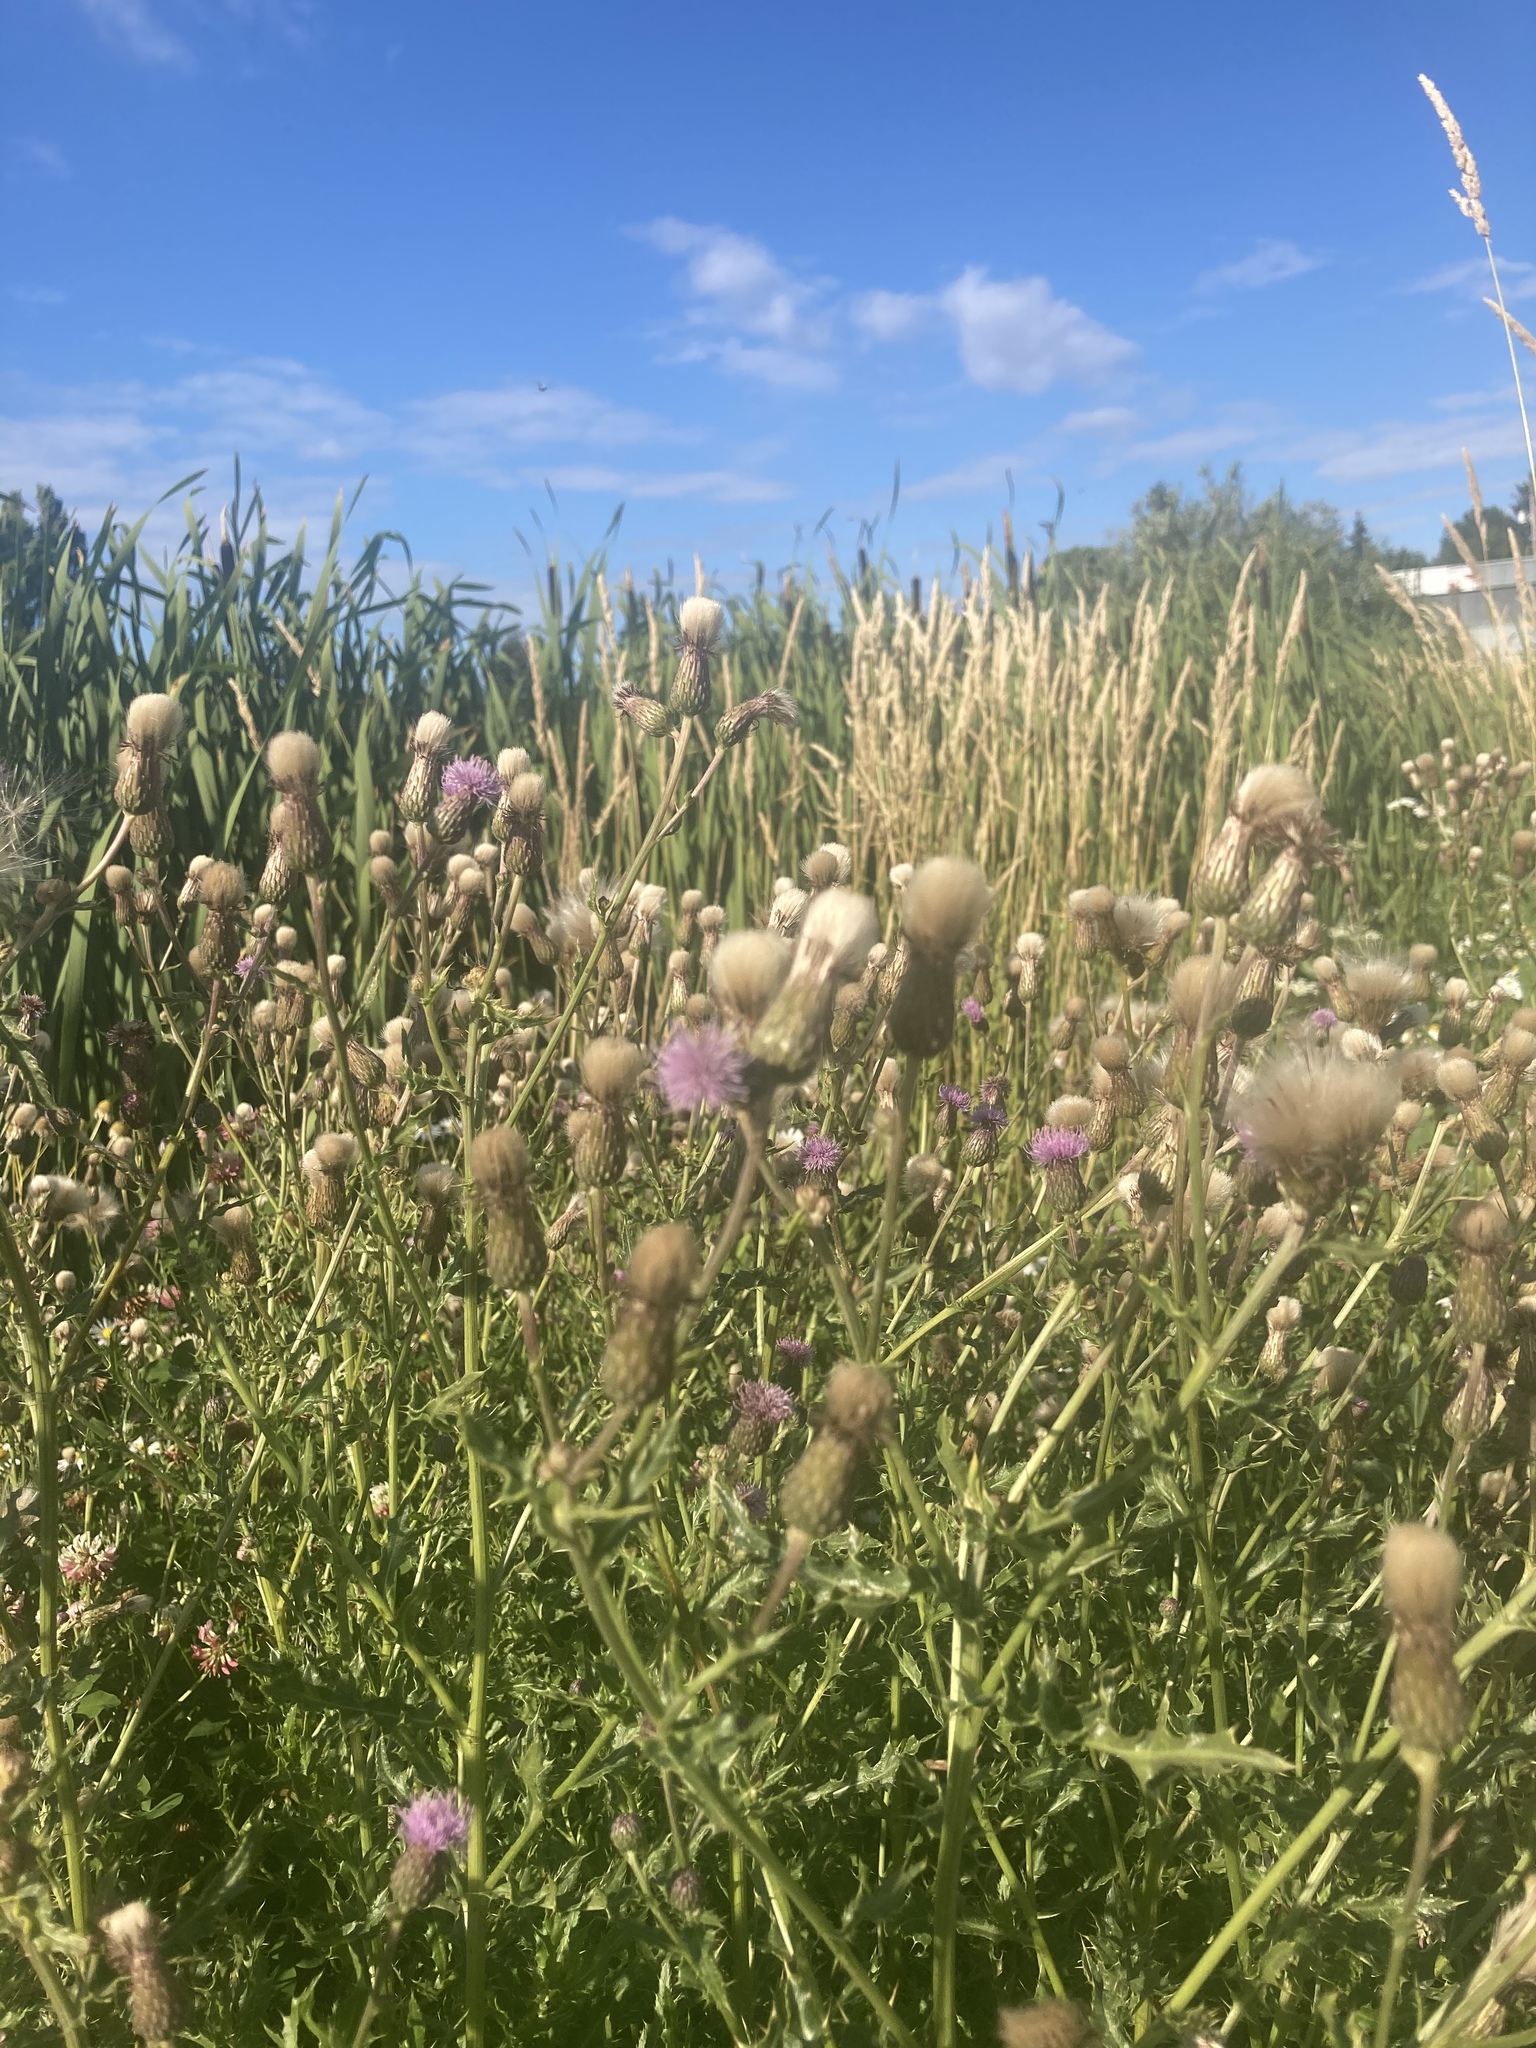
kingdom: Plantae
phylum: Tracheophyta
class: Magnoliopsida
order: Asterales
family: Asteraceae
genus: Cirsium
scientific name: Cirsium arvense
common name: Creeping thistle
